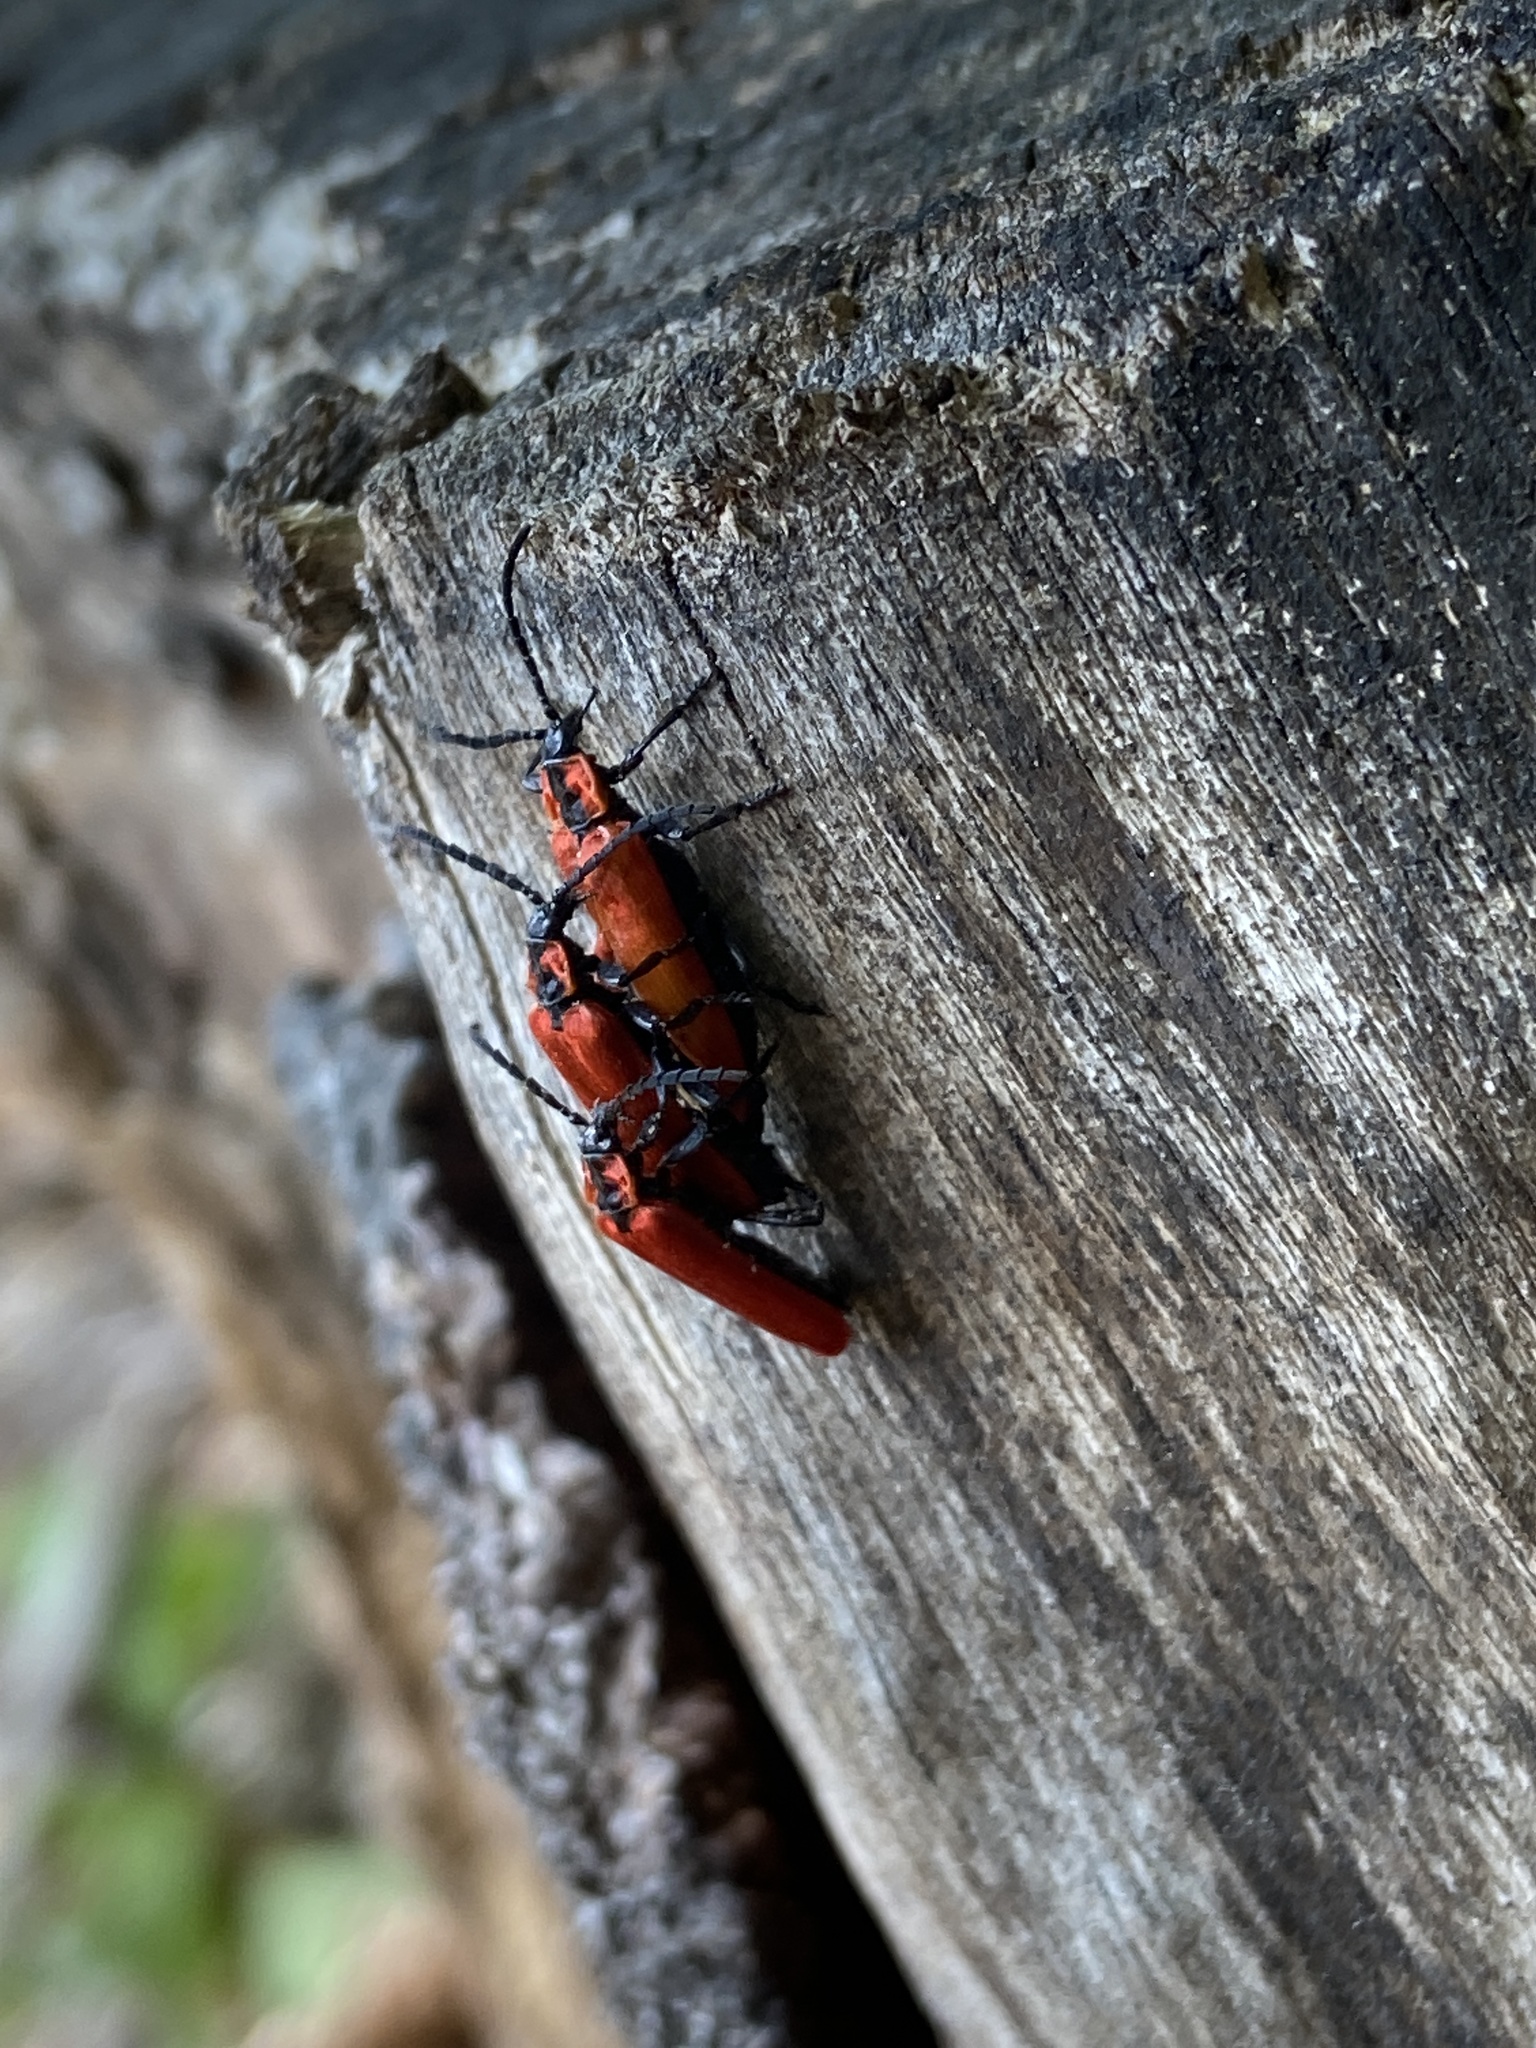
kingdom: Animalia
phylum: Arthropoda
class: Insecta
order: Coleoptera
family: Lycidae
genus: Lygistopterus
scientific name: Lygistopterus sanguineus
